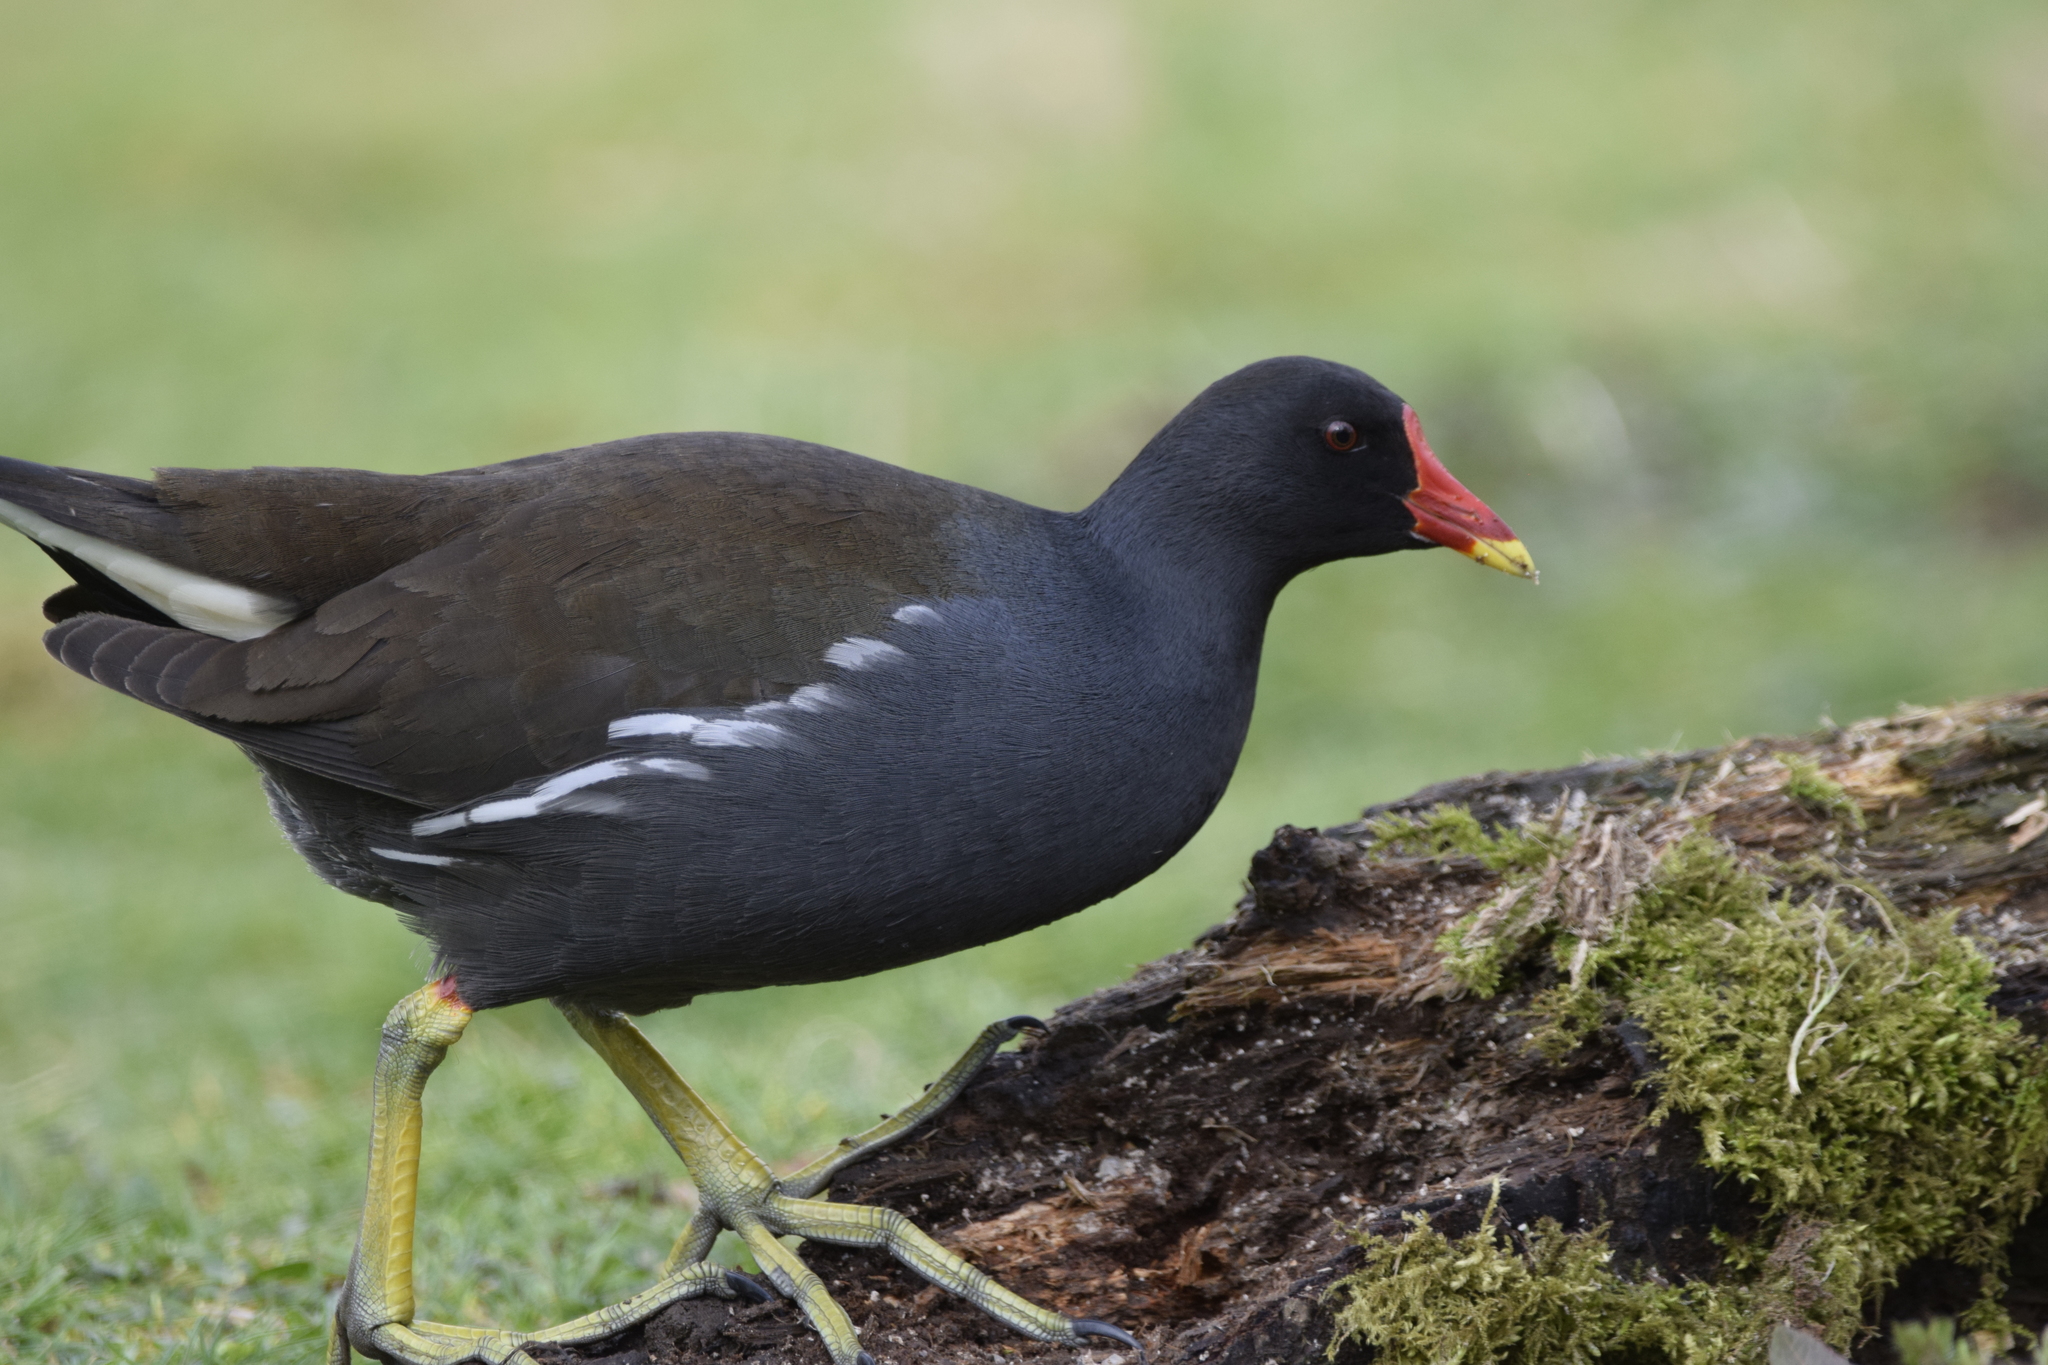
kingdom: Animalia
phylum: Chordata
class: Aves
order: Gruiformes
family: Rallidae
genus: Gallinula
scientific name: Gallinula chloropus
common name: Common moorhen
